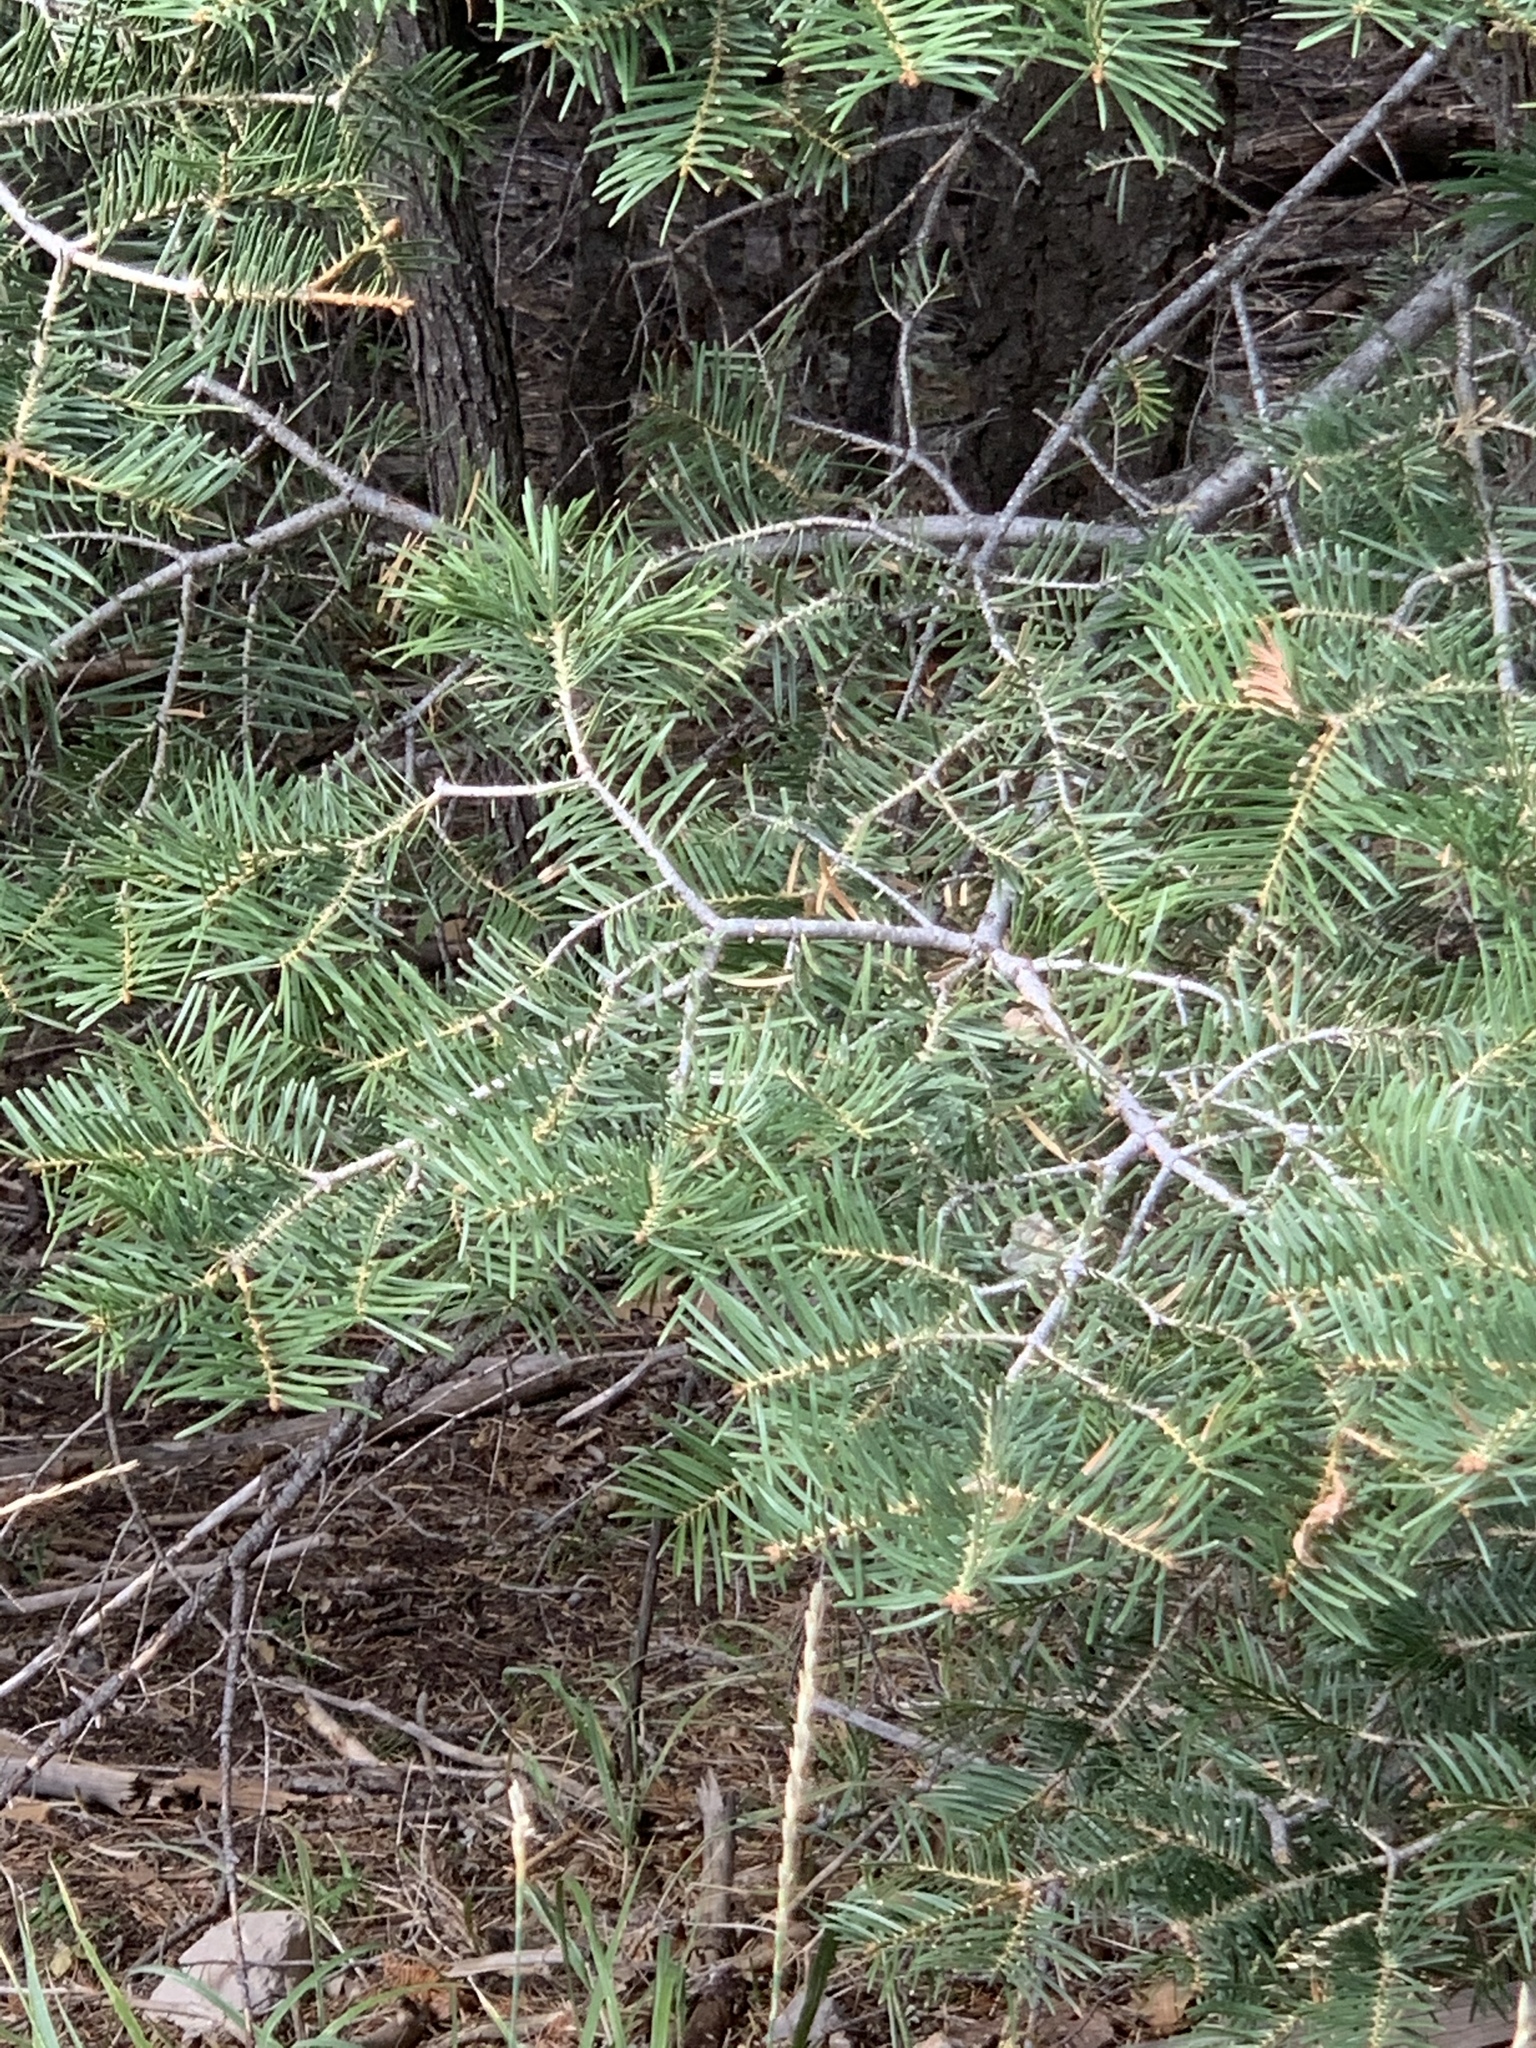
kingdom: Plantae
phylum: Tracheophyta
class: Pinopsida
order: Pinales
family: Pinaceae
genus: Abies
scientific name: Abies concolor
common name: Colorado fir
